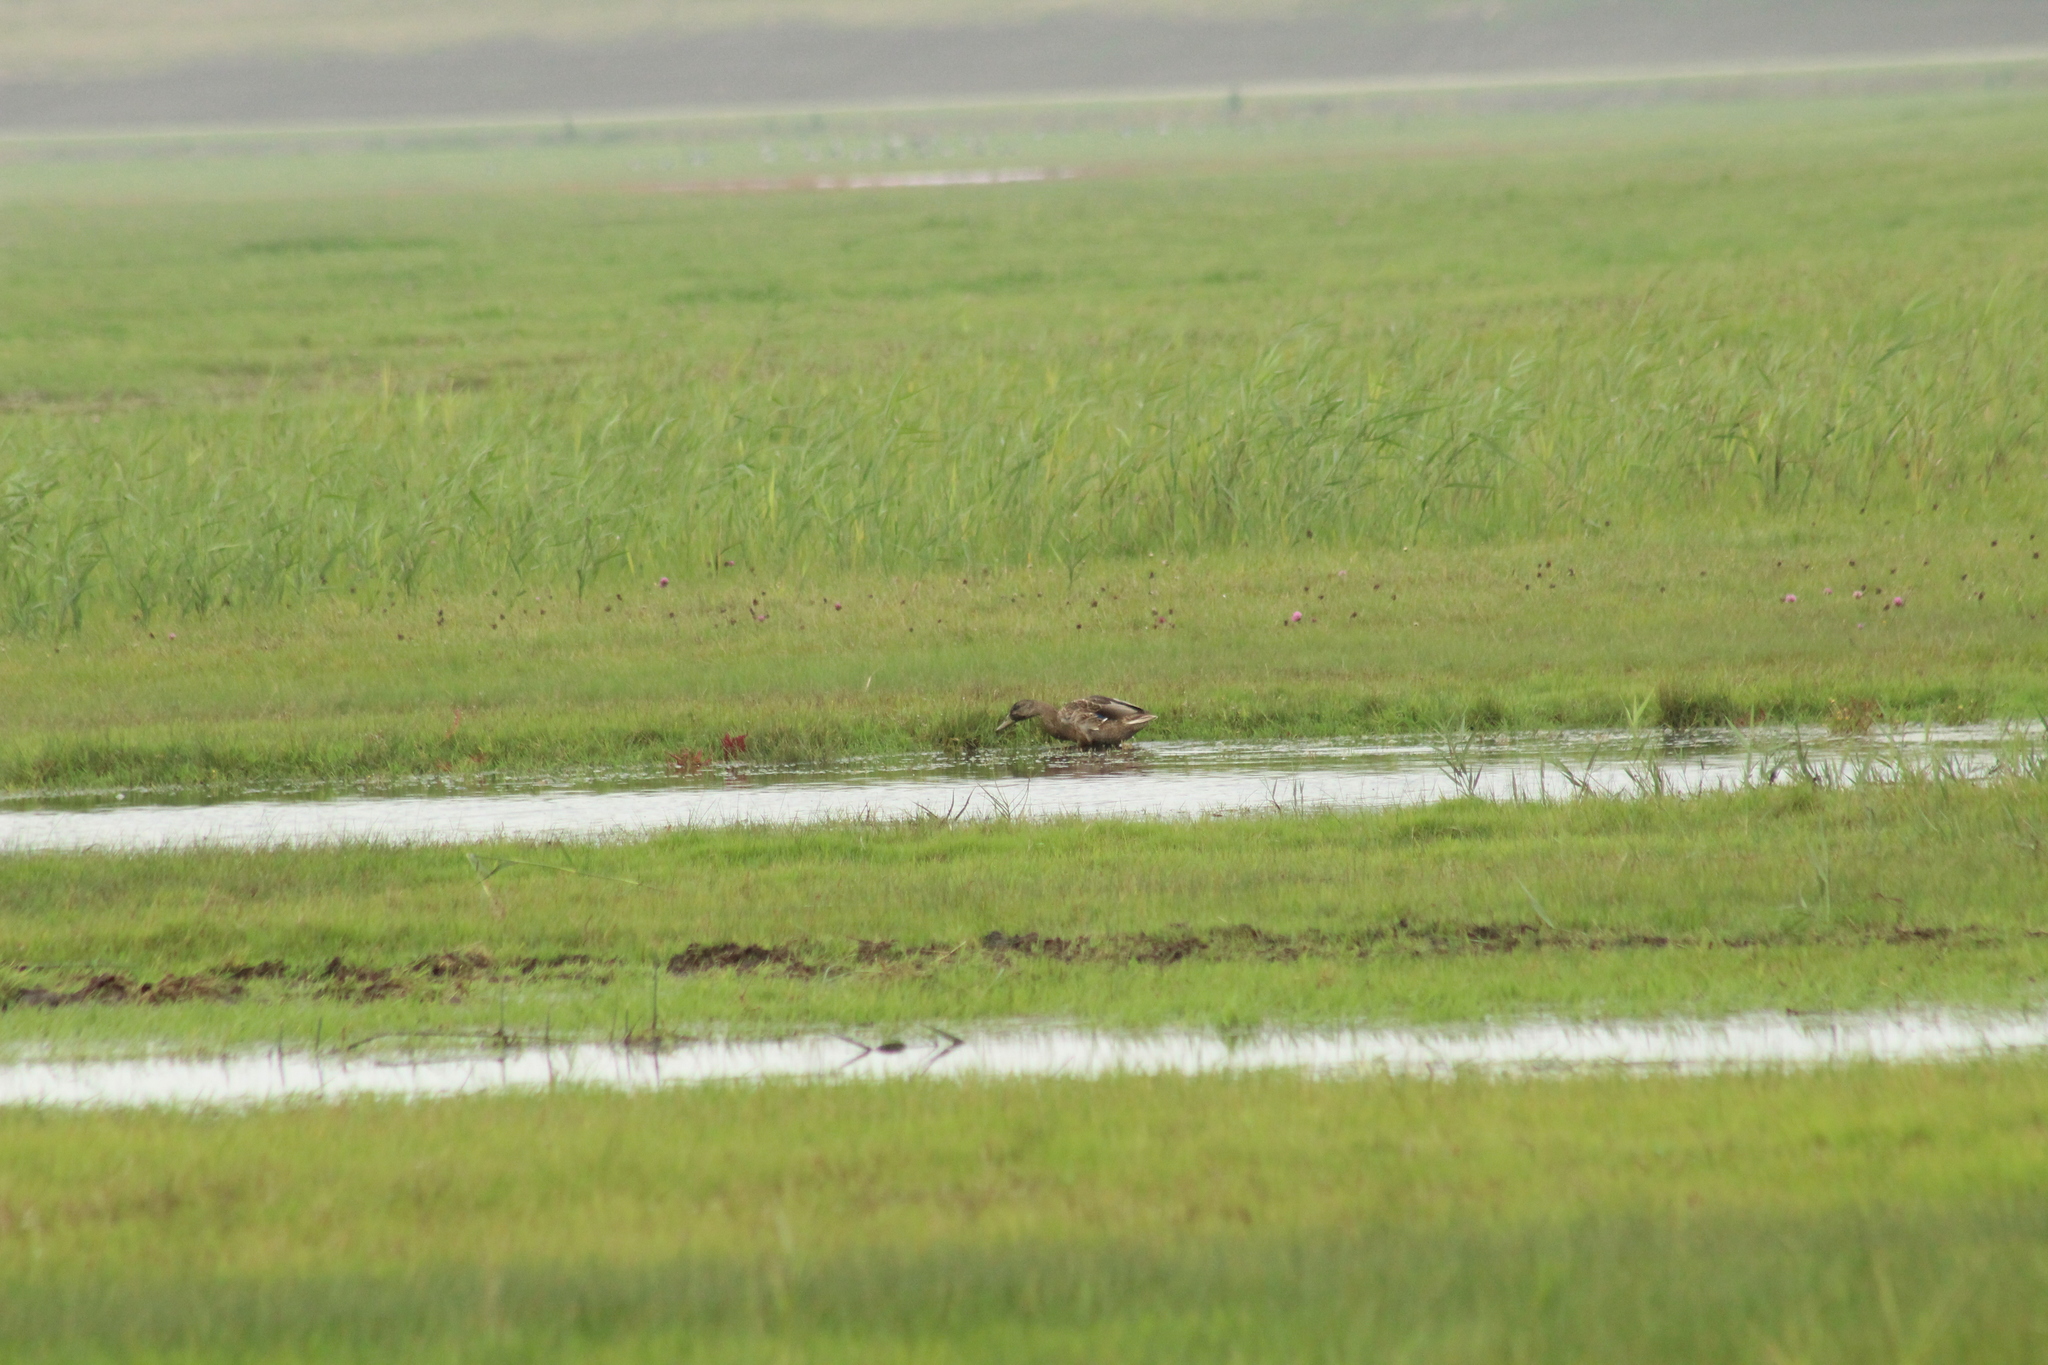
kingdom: Animalia
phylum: Chordata
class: Aves
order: Anseriformes
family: Anatidae
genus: Anas
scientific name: Anas platyrhynchos
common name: Mallard
